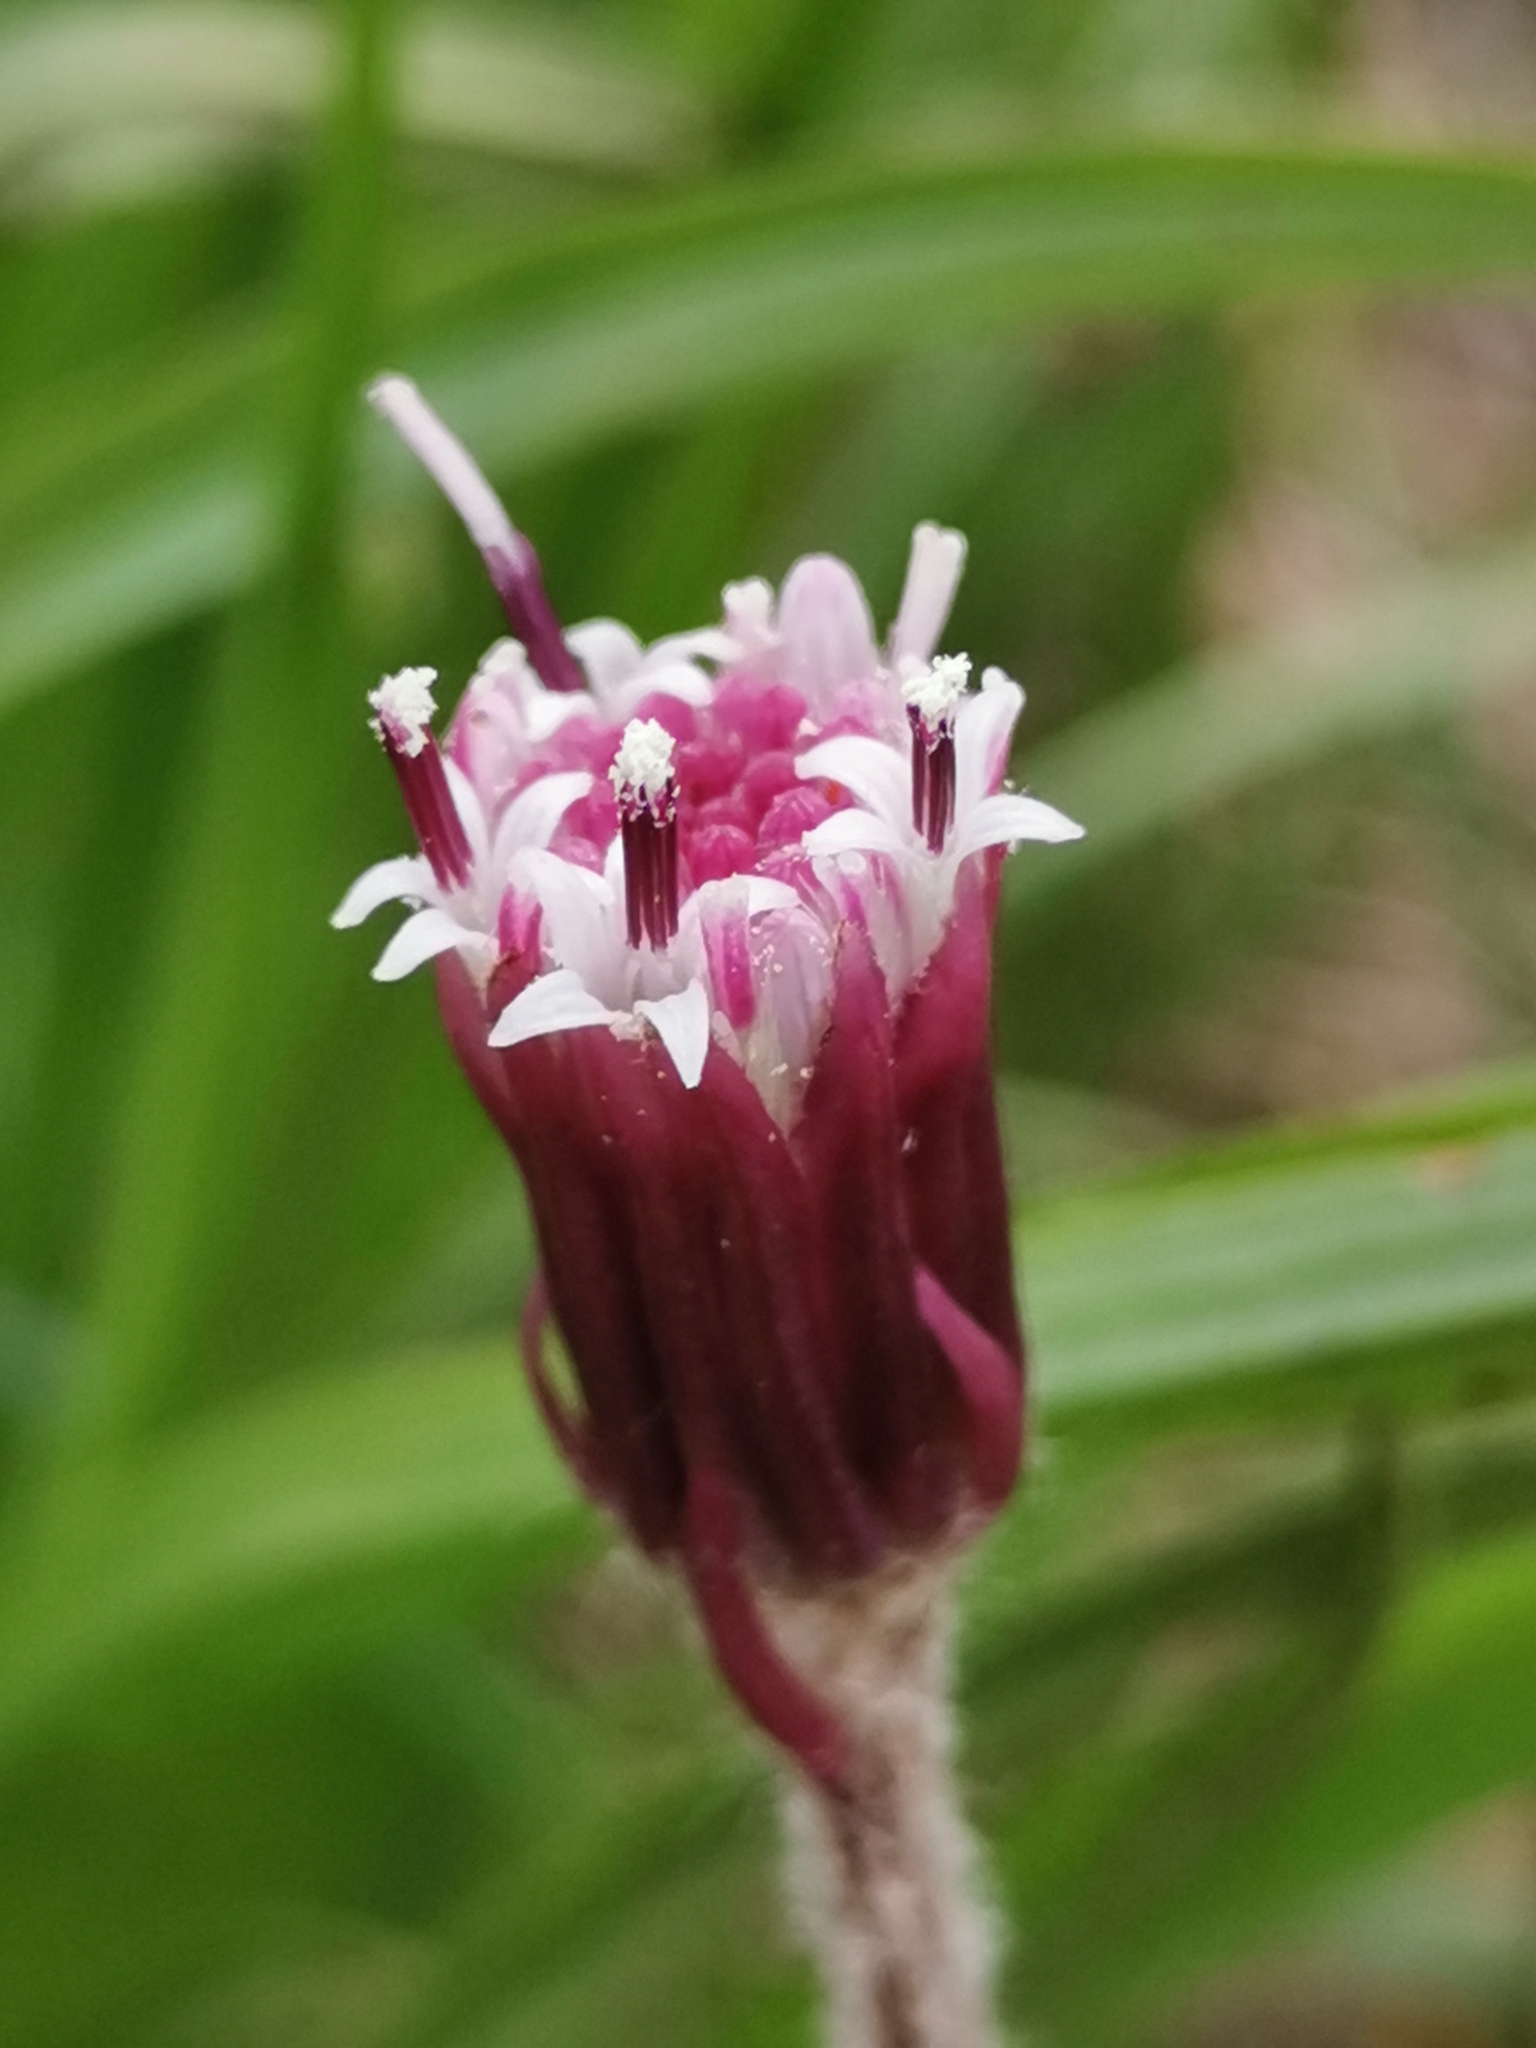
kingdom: Plantae
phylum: Tracheophyta
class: Magnoliopsida
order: Asterales
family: Asteraceae
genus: Homogyne
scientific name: Homogyne alpina
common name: Purple colt's-foot
